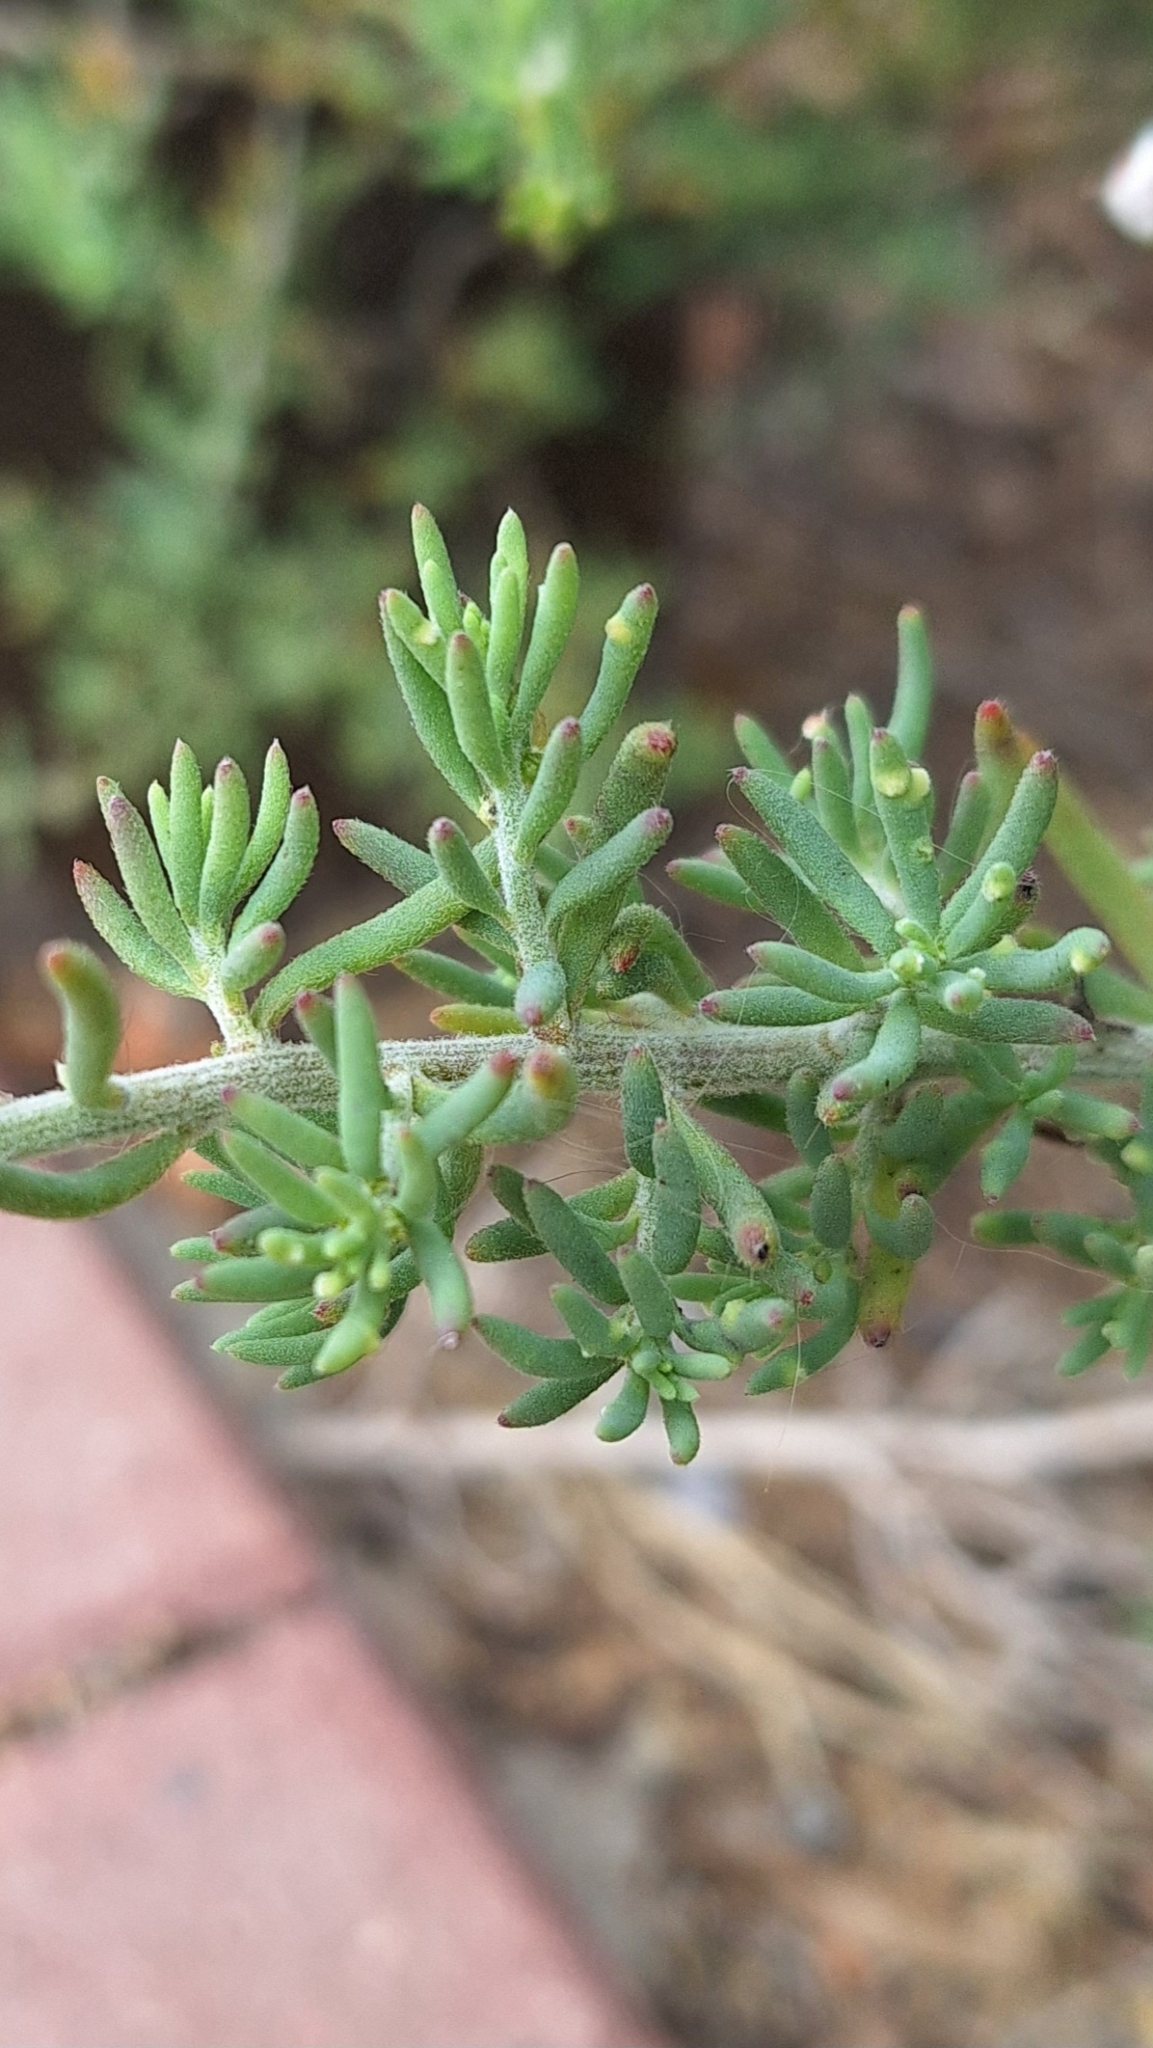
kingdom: Plantae
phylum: Tracheophyta
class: Magnoliopsida
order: Caryophyllales
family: Amaranthaceae
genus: Enchylaena
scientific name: Enchylaena tomentosa
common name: Ruby saltbush
